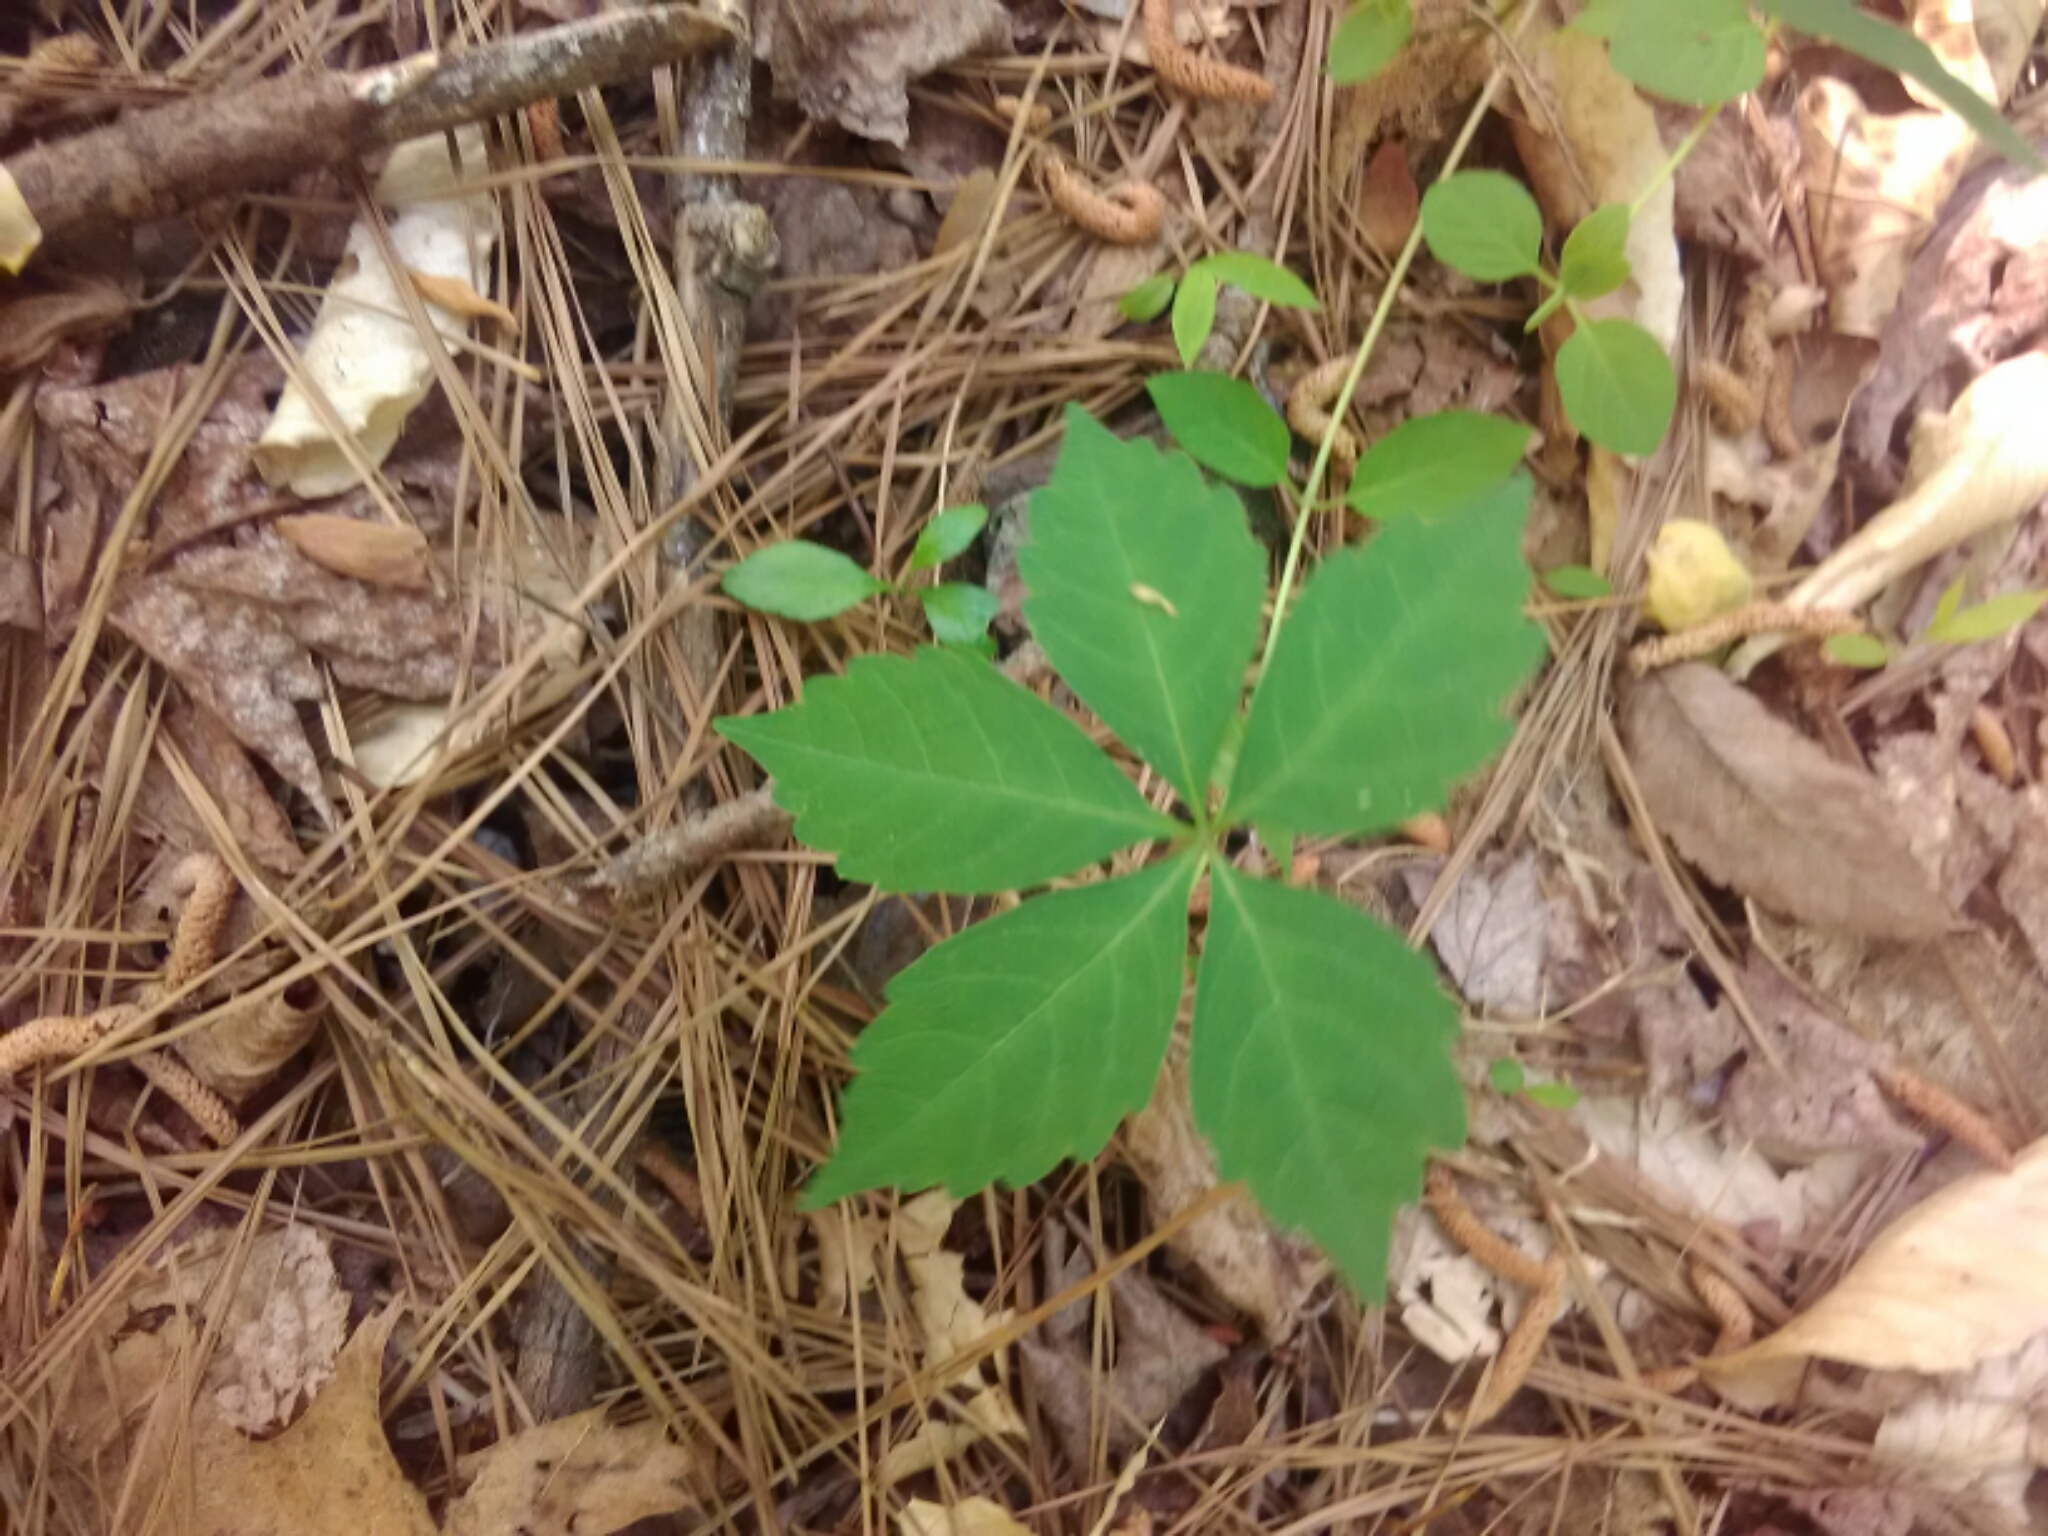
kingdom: Plantae
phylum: Tracheophyta
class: Magnoliopsida
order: Vitales
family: Vitaceae
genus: Parthenocissus
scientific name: Parthenocissus quinquefolia
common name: Virginia-creeper
